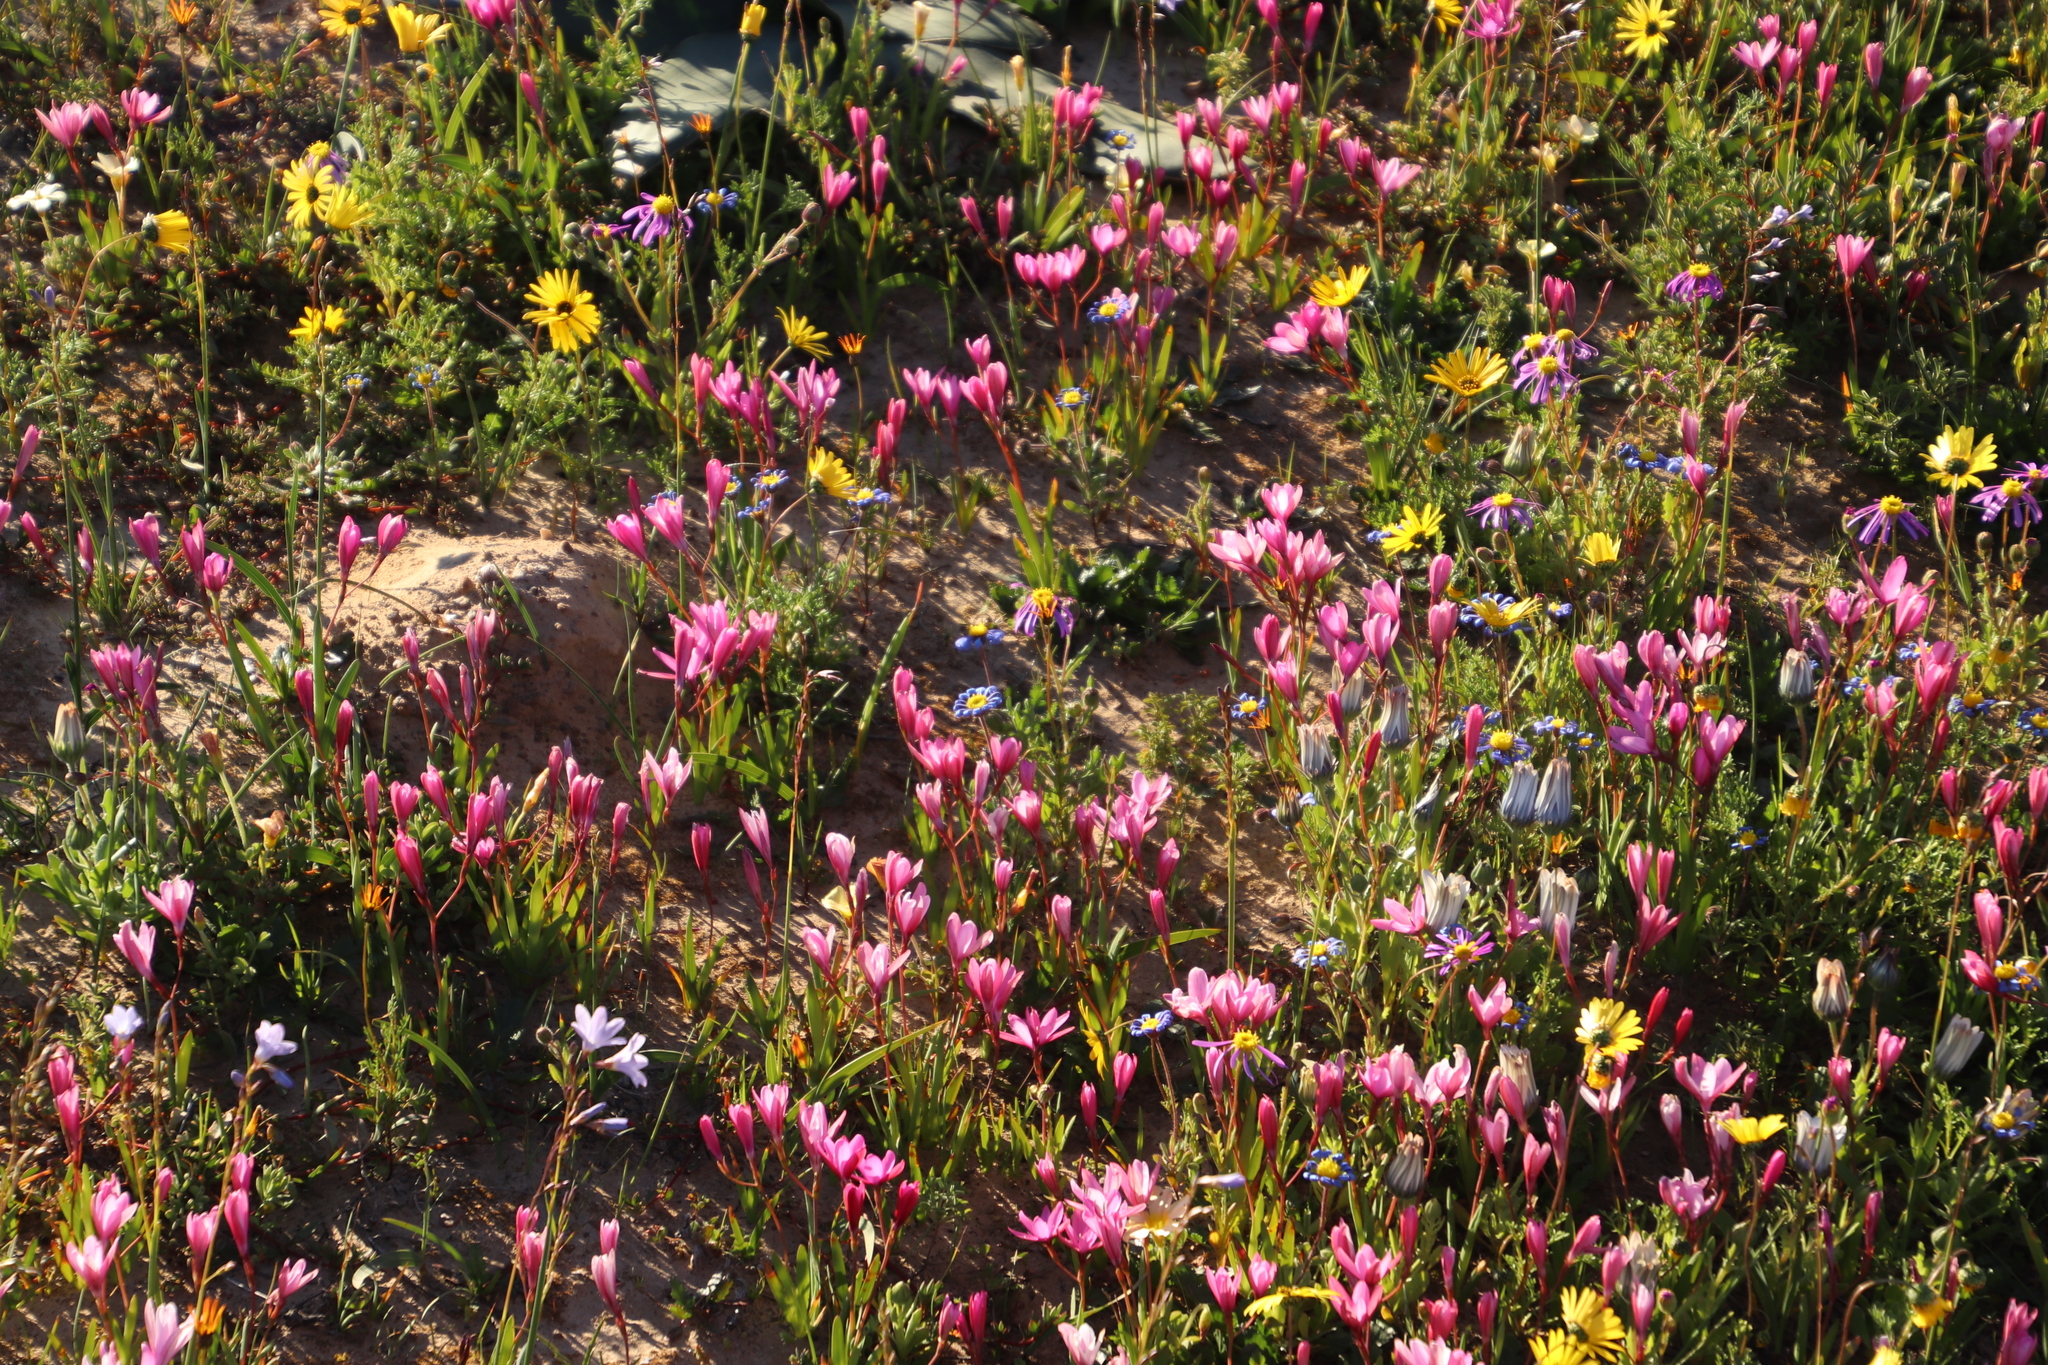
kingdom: Plantae
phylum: Tracheophyta
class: Liliopsida
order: Asparagales
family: Iridaceae
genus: Hesperantha
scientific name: Hesperantha pauciflora
